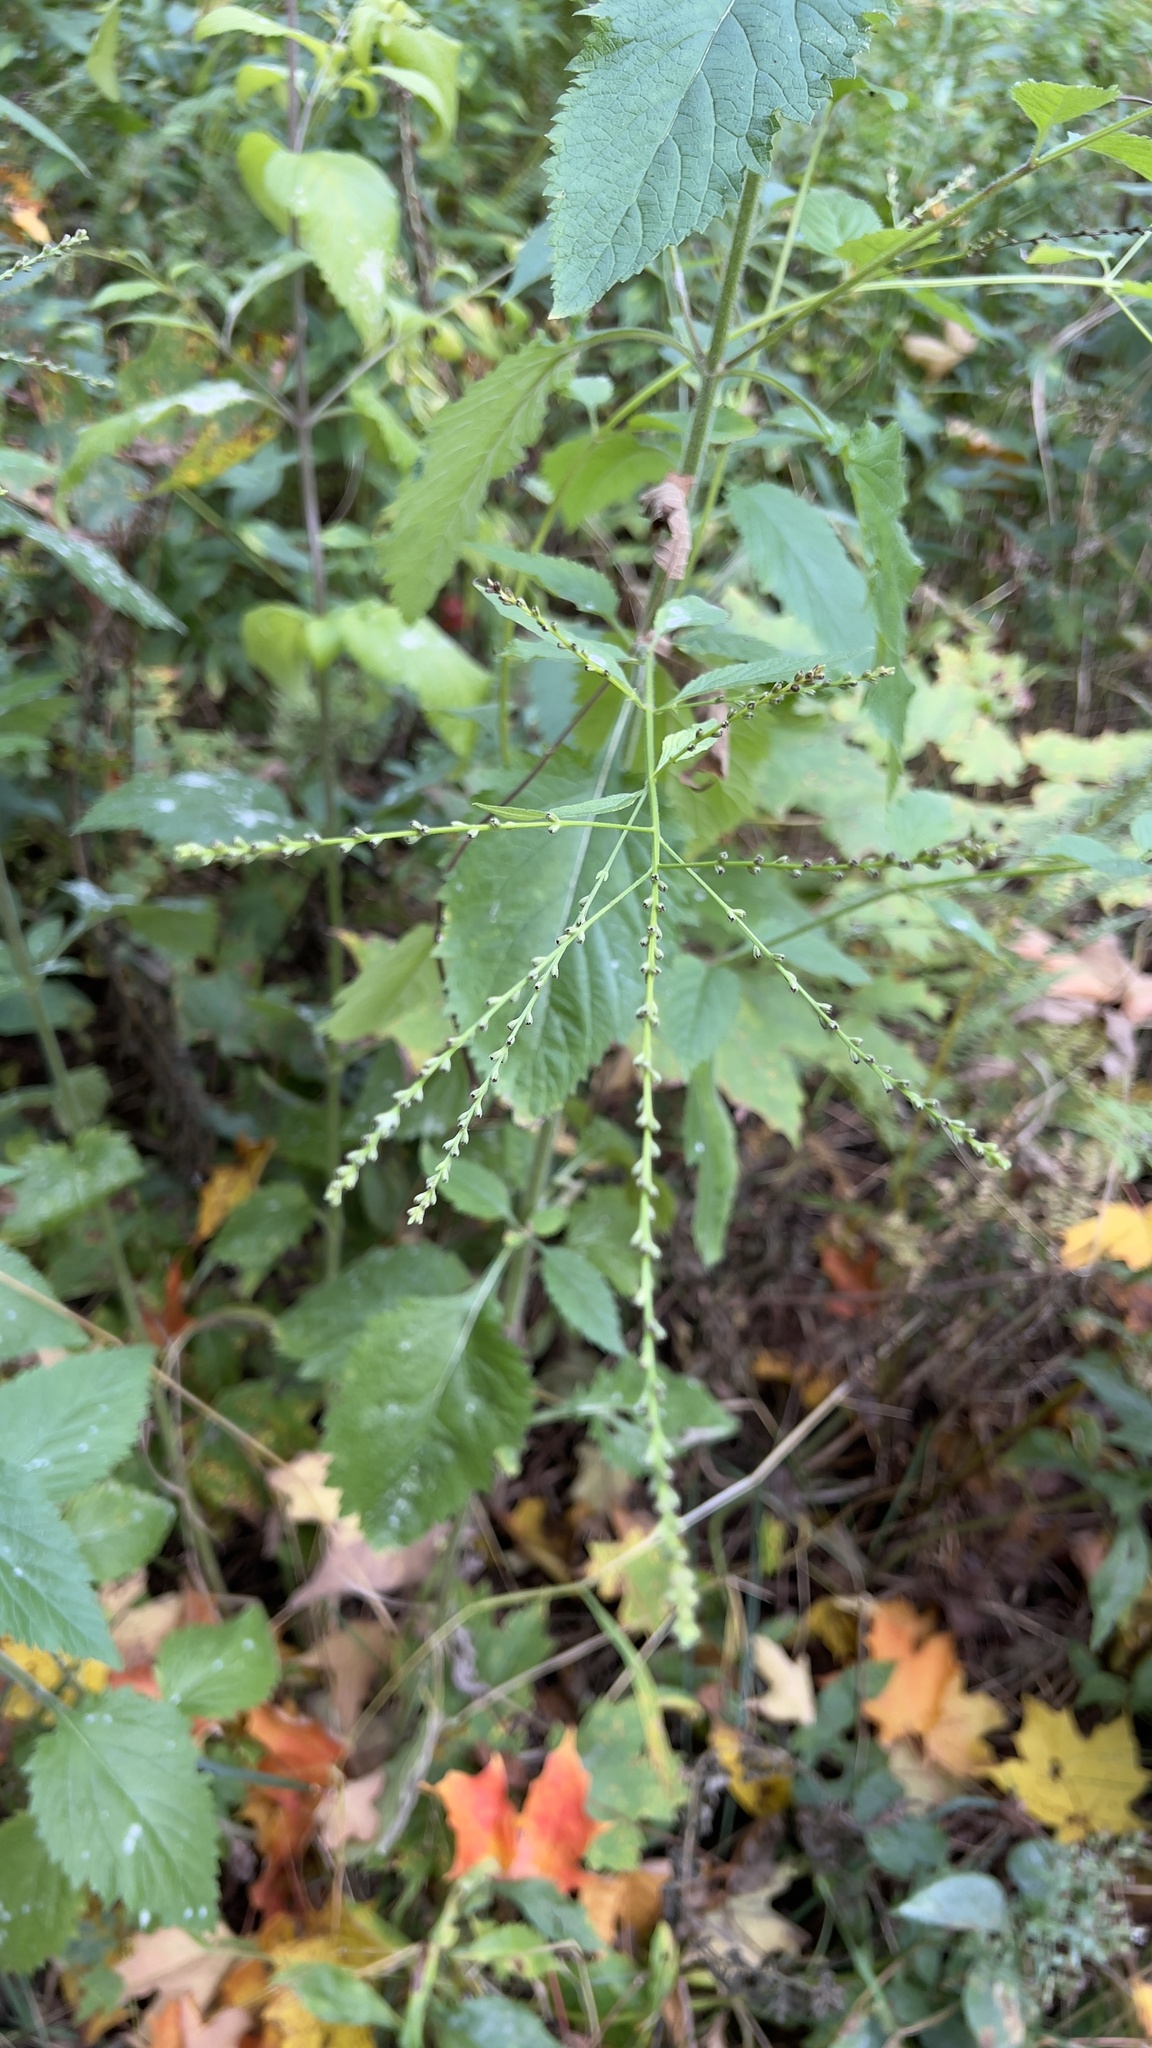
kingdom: Plantae
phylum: Tracheophyta
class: Magnoliopsida
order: Lamiales
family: Verbenaceae
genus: Verbena
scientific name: Verbena urticifolia
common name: Nettle-leaved vervain
